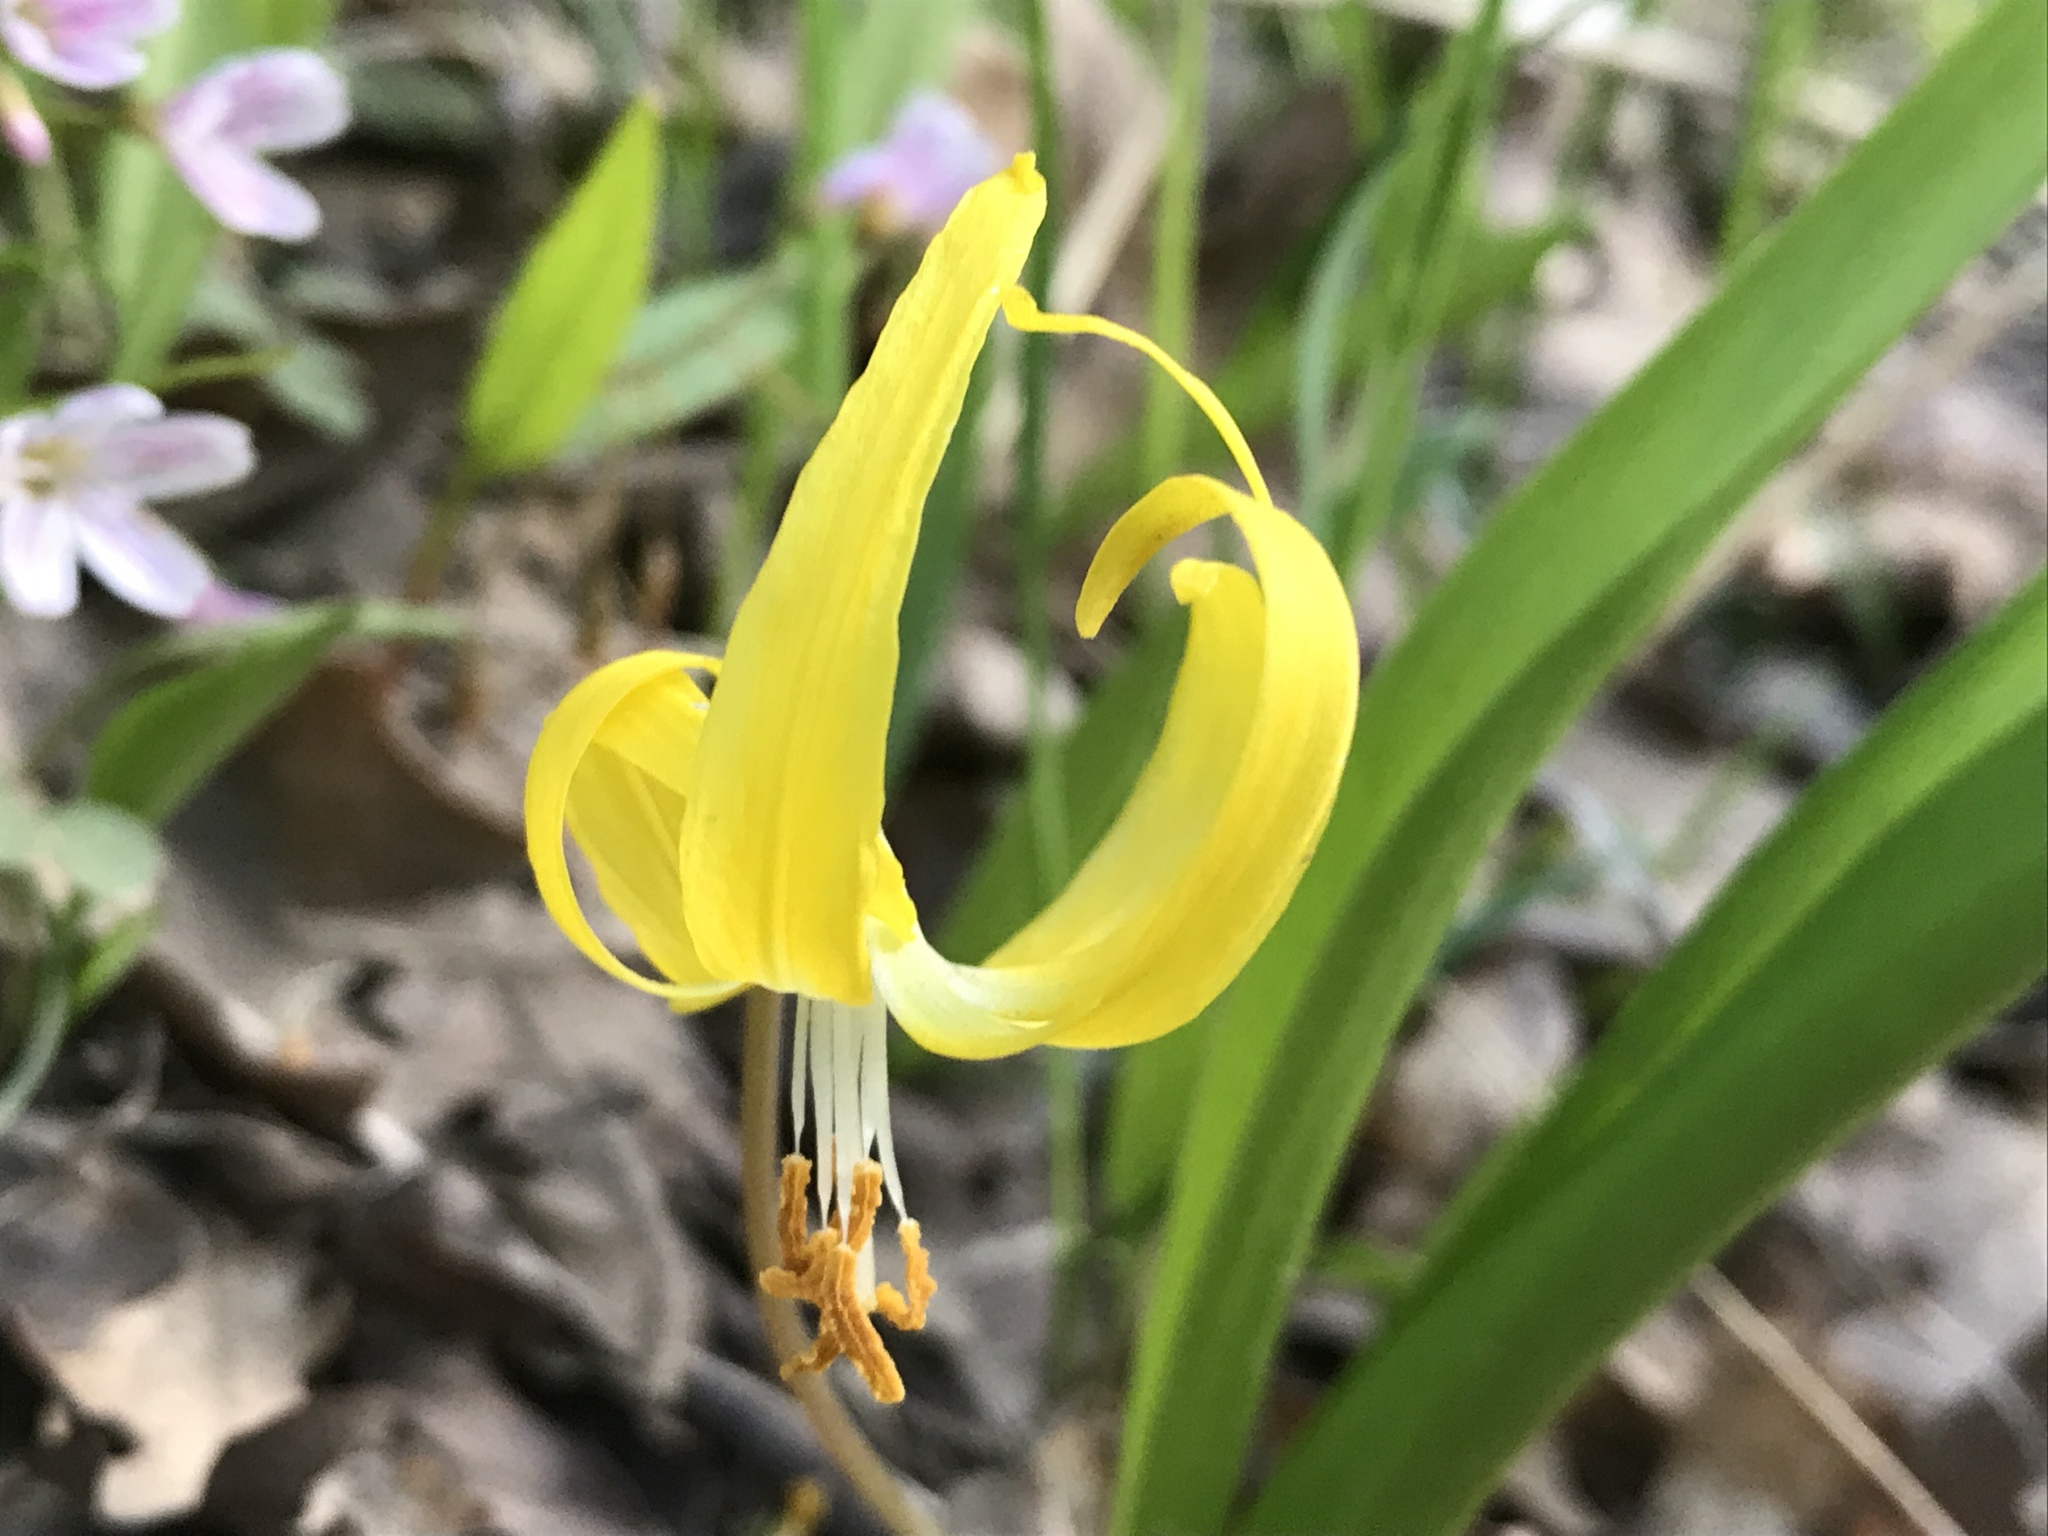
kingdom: Plantae
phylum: Tracheophyta
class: Liliopsida
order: Liliales
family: Liliaceae
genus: Erythronium
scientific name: Erythronium grandiflorum
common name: Avalanche-lily
